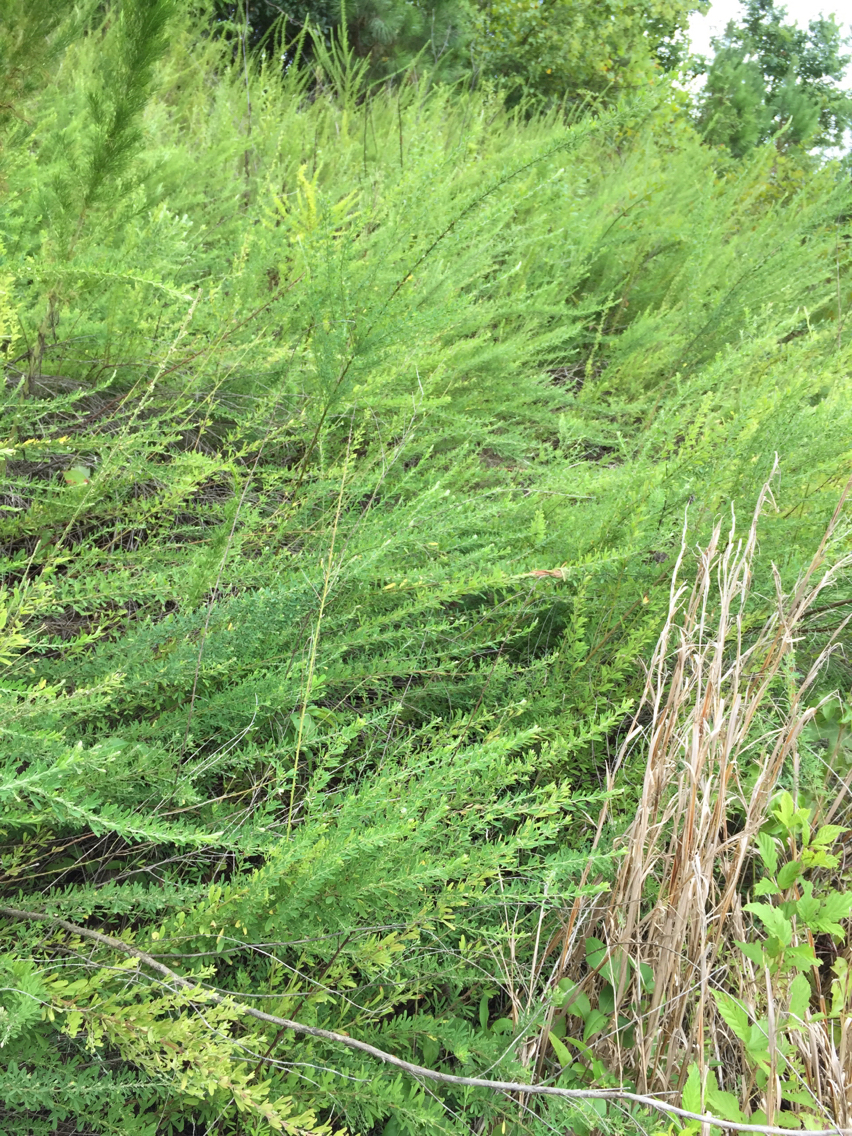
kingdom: Plantae
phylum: Tracheophyta
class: Magnoliopsida
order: Fabales
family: Fabaceae
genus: Lespedeza
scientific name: Lespedeza cuneata
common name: Chinese bush-clover
